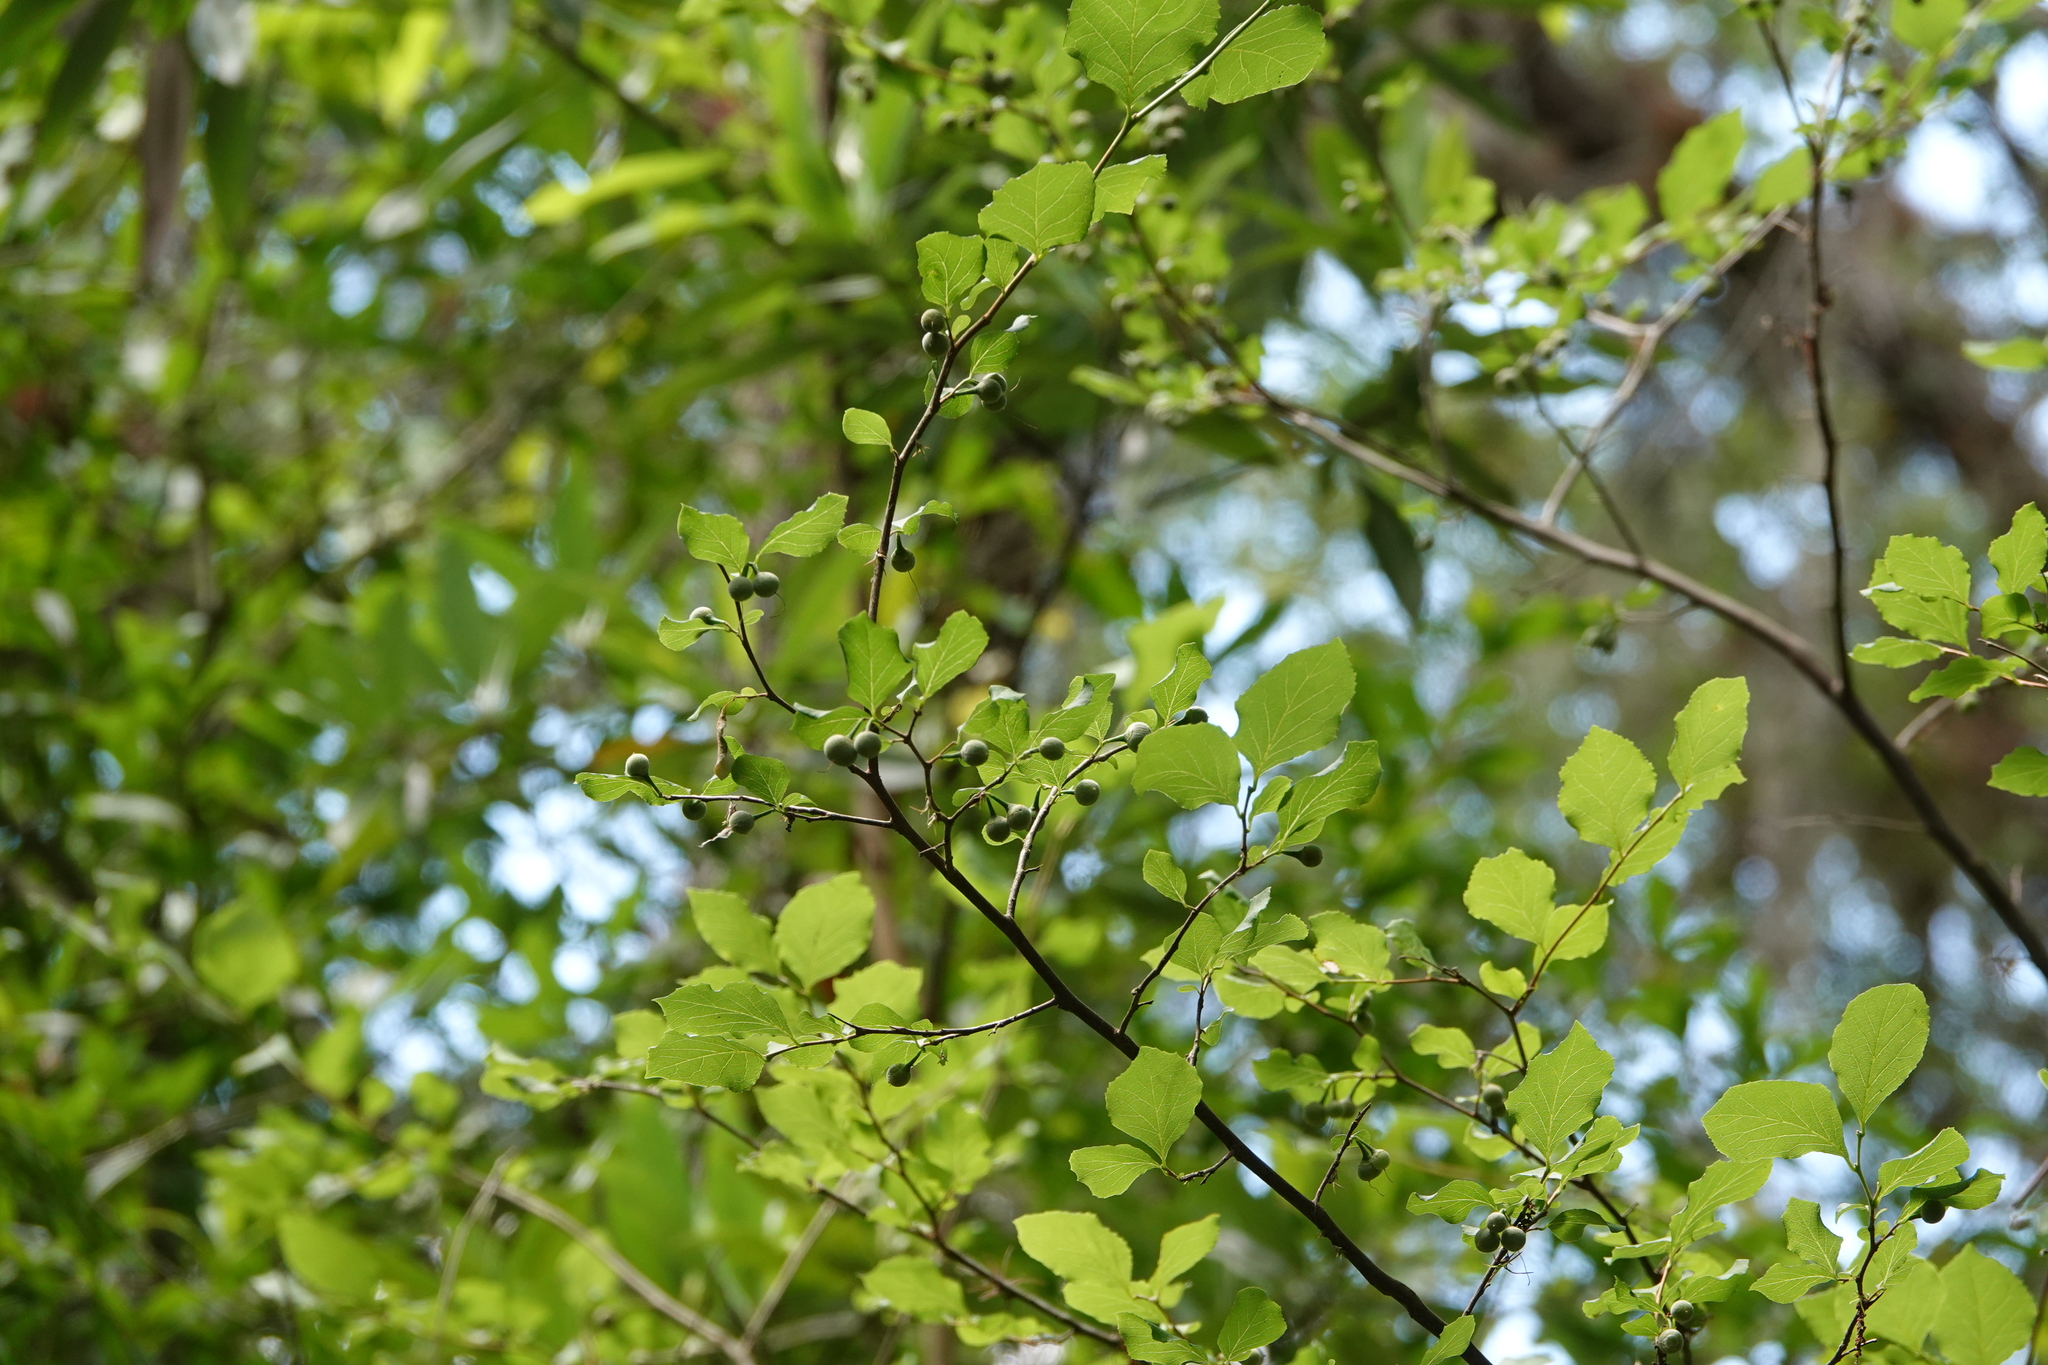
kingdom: Plantae
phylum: Tracheophyta
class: Magnoliopsida
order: Ericales
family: Styracaceae
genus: Styrax
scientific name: Styrax americanus
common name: American snowbell
